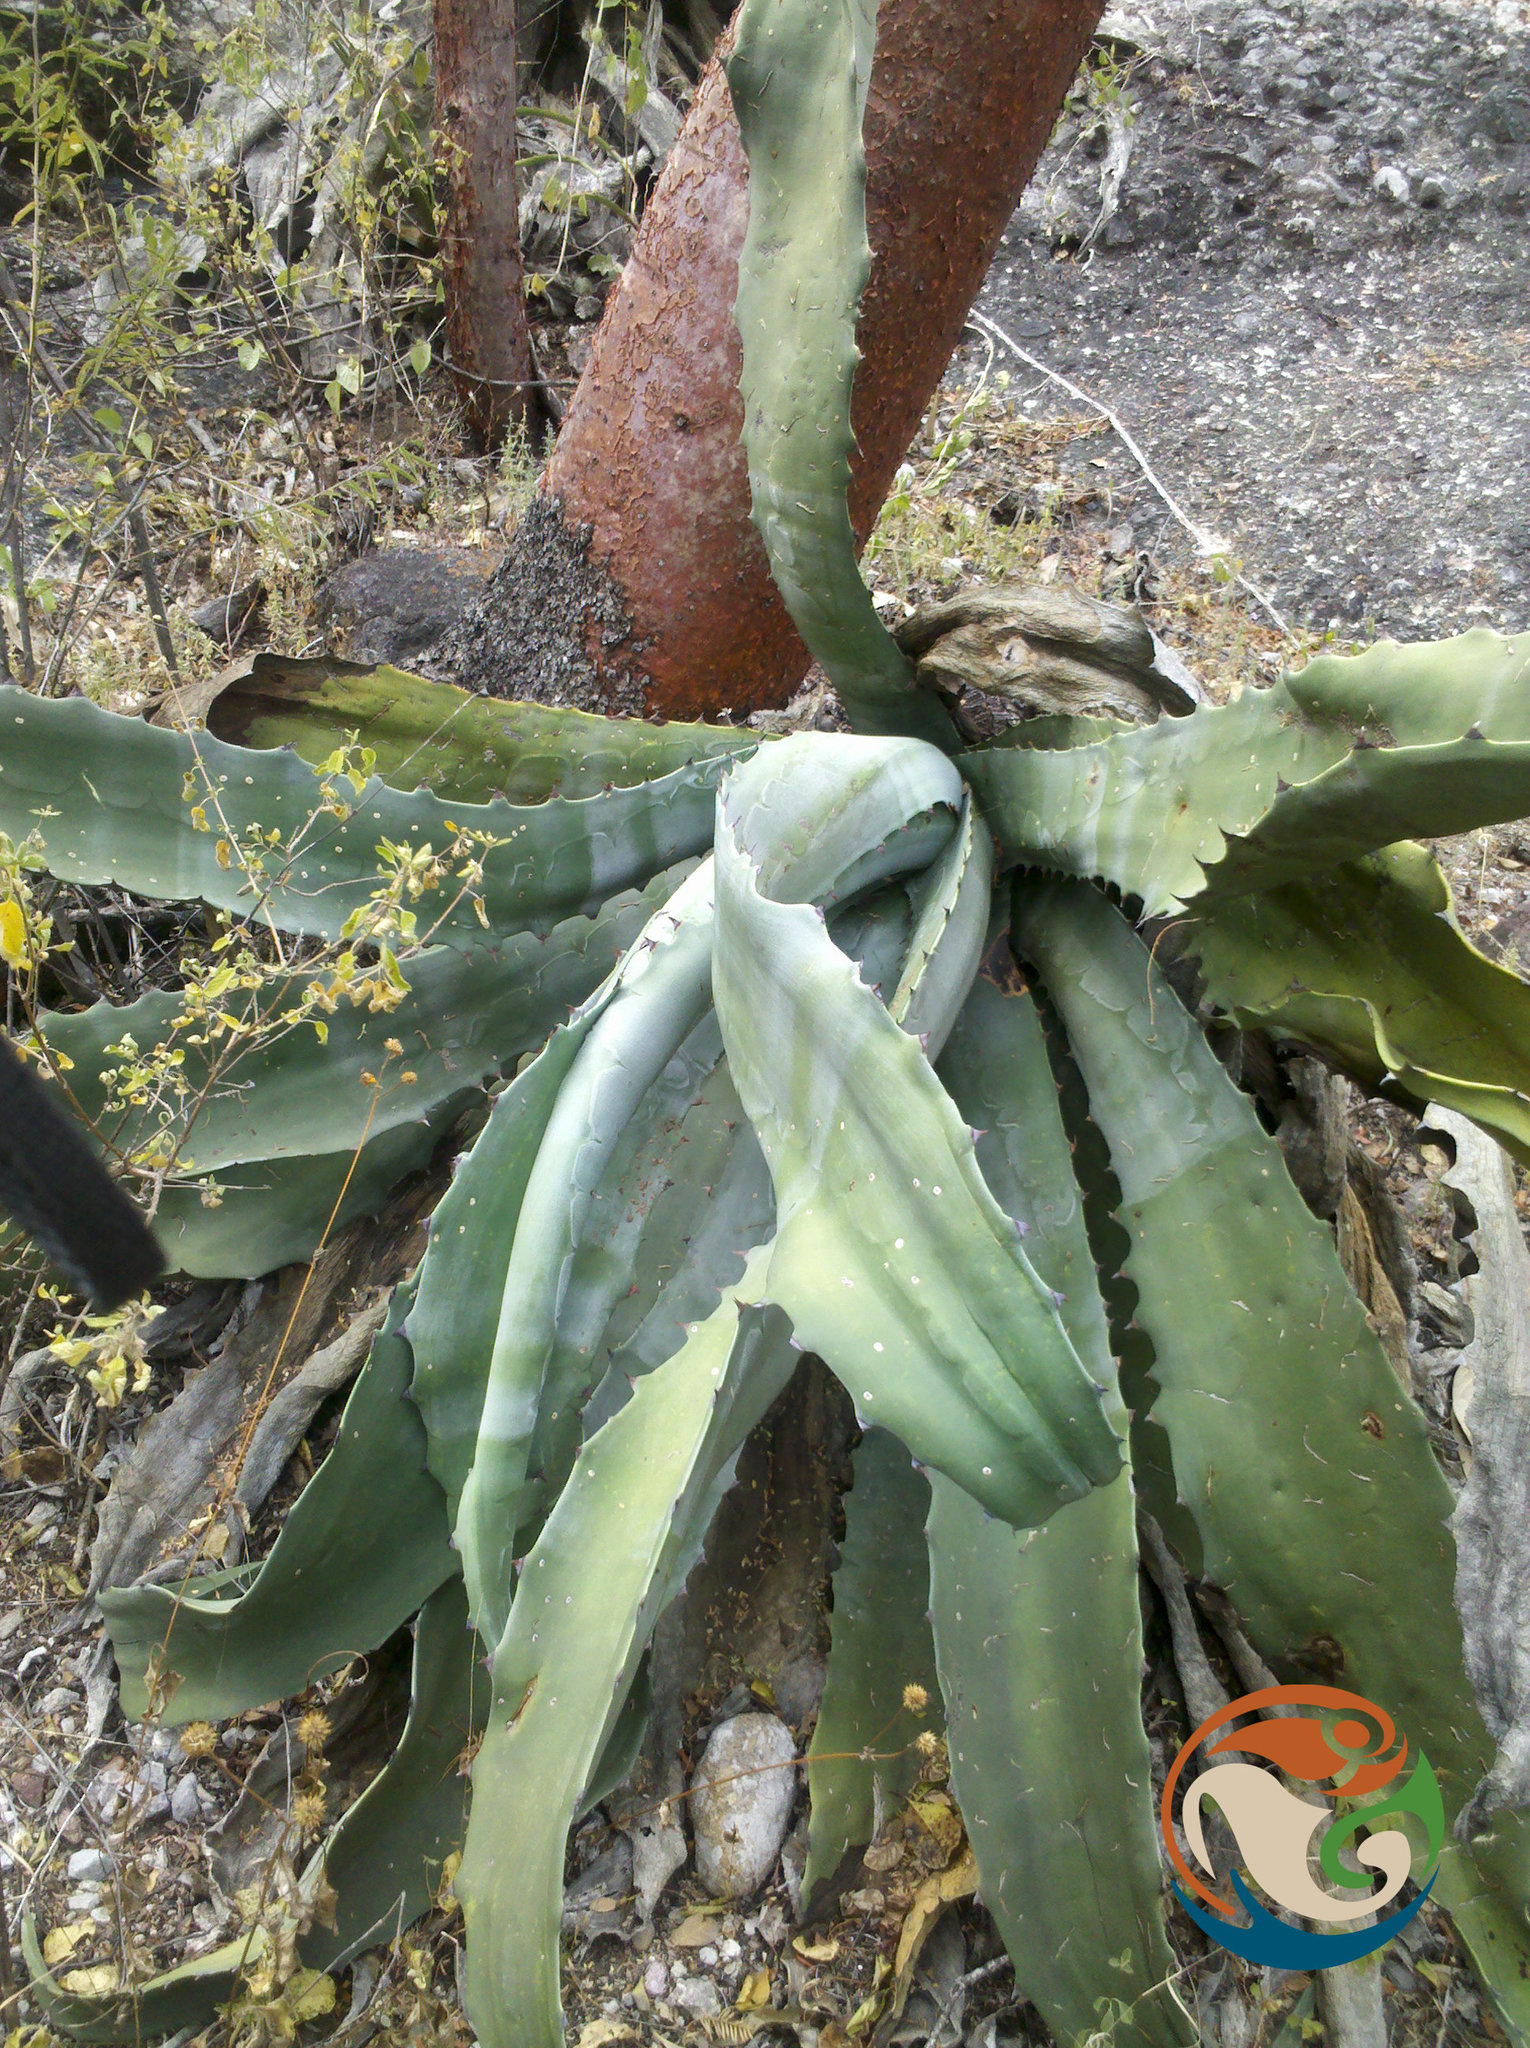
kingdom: Plantae
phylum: Tracheophyta
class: Liliopsida
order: Asparagales
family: Asparagaceae
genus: Agave
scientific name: Agave marmorata
